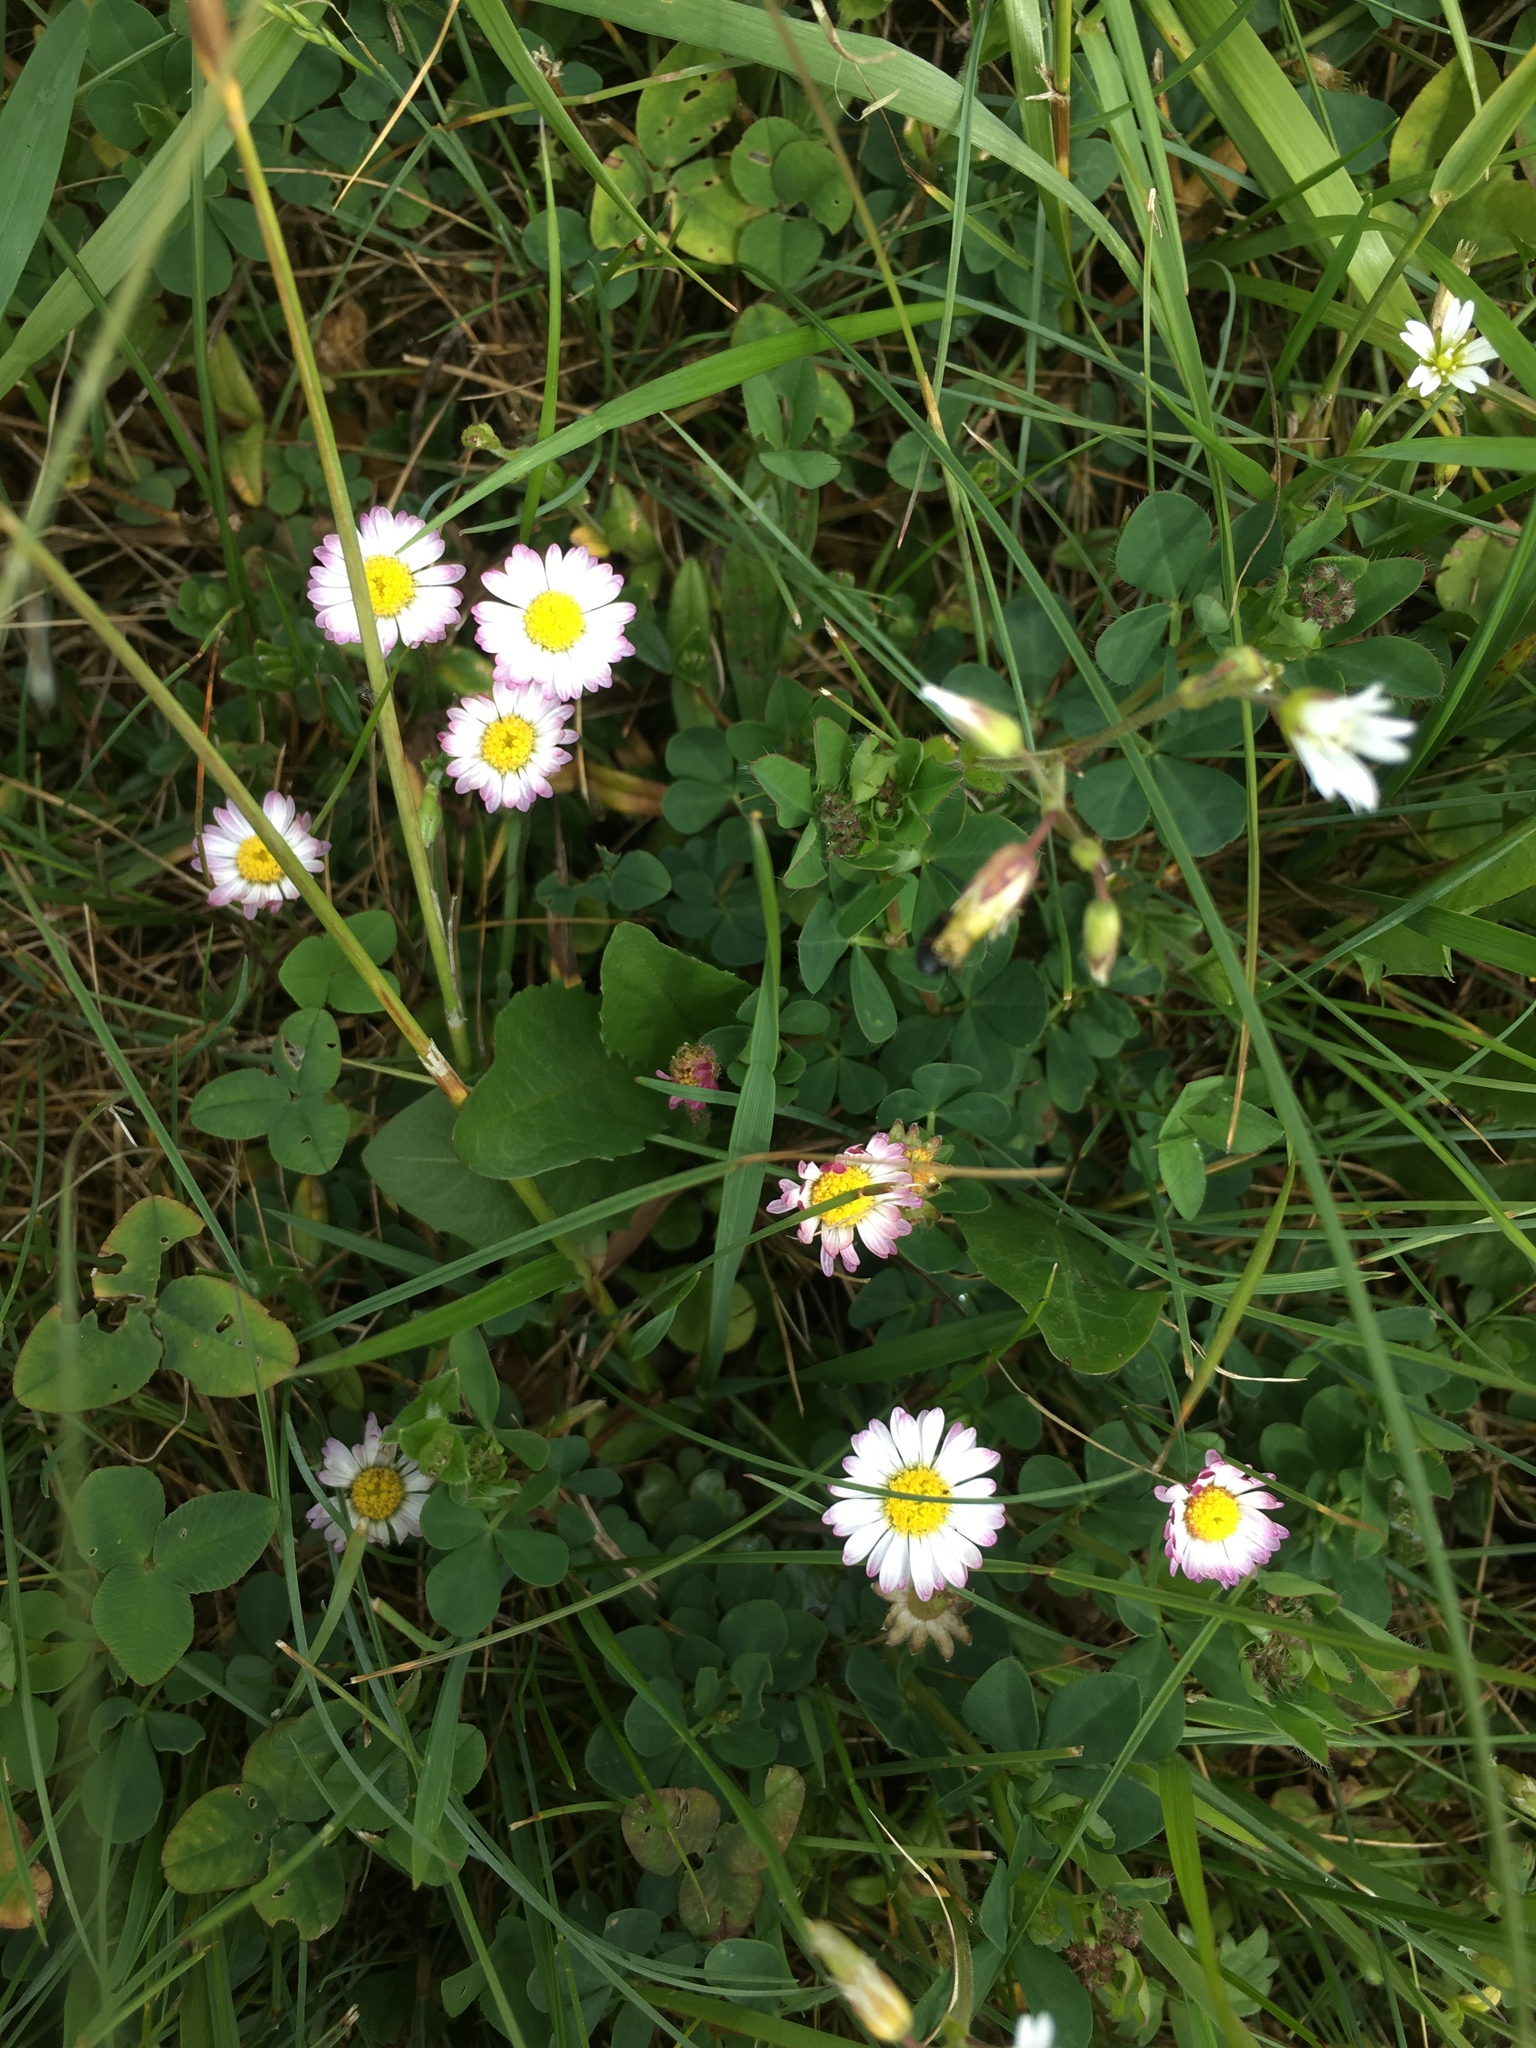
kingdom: Plantae
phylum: Tracheophyta
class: Magnoliopsida
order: Asterales
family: Asteraceae
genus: Bellis
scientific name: Bellis perennis
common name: Lawndaisy
